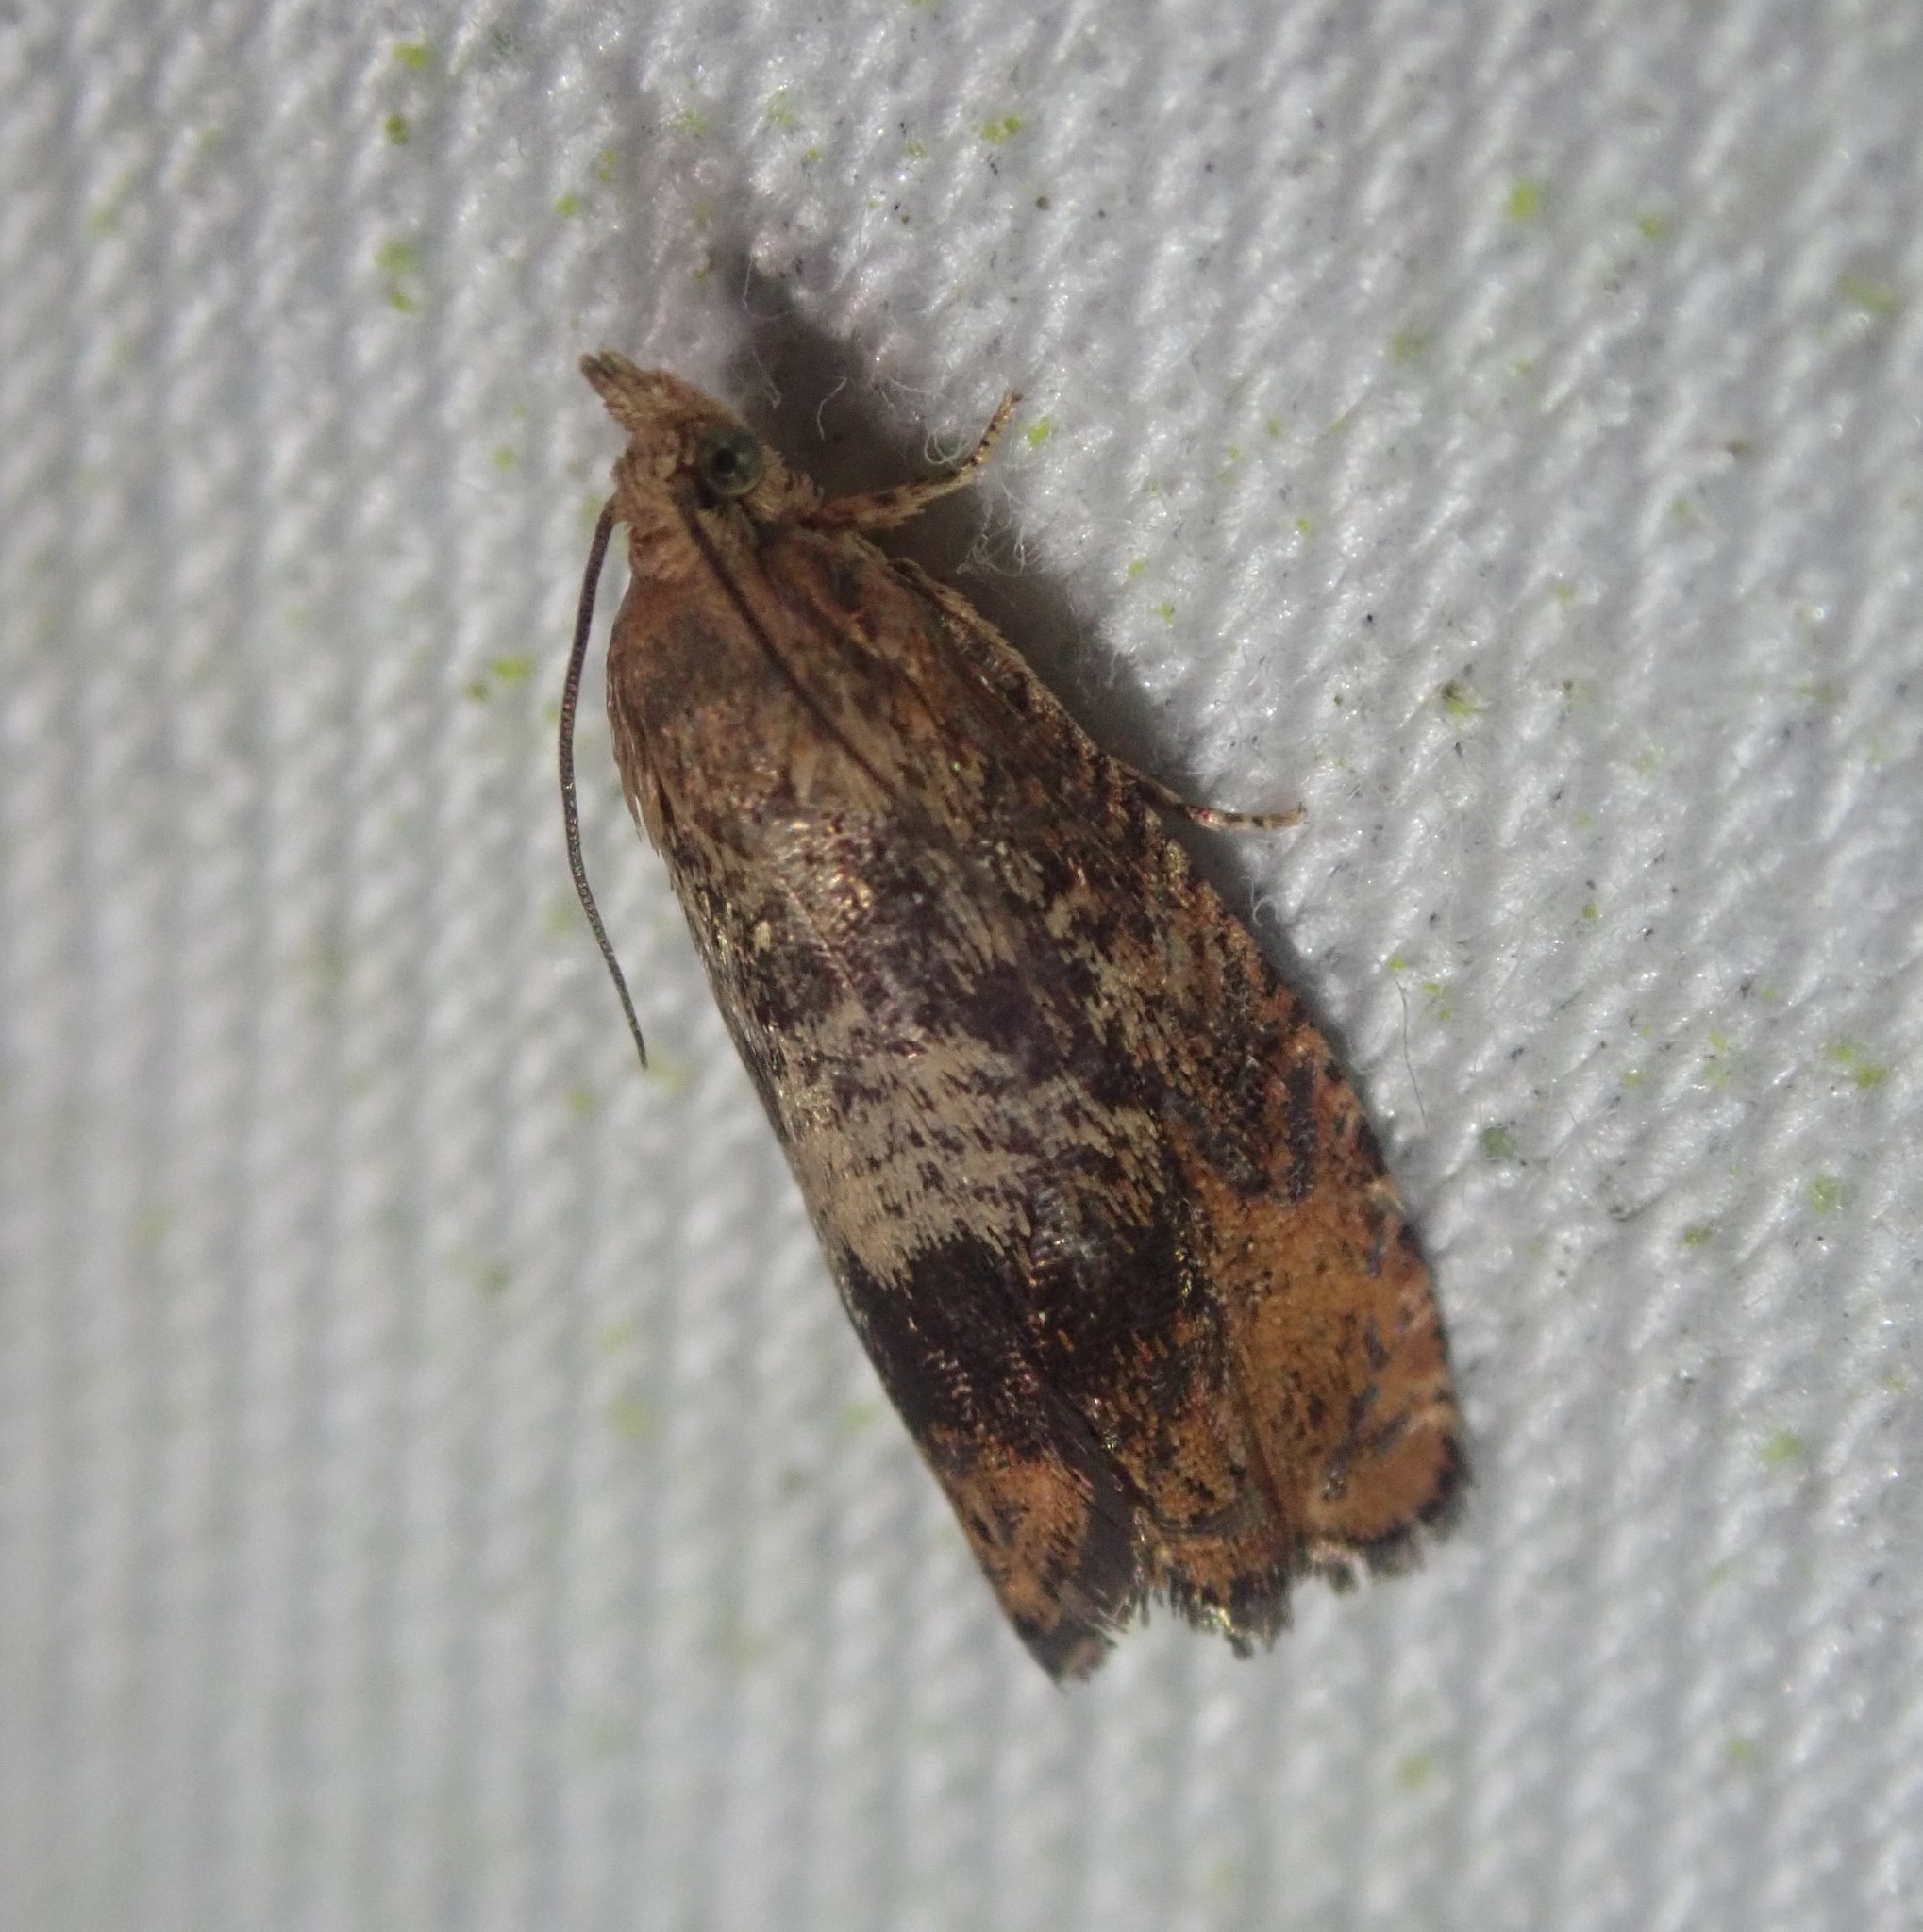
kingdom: Animalia
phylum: Arthropoda
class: Insecta
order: Lepidoptera
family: Tortricidae
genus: Cydia
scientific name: Cydia amplana
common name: Vagrant piercer
